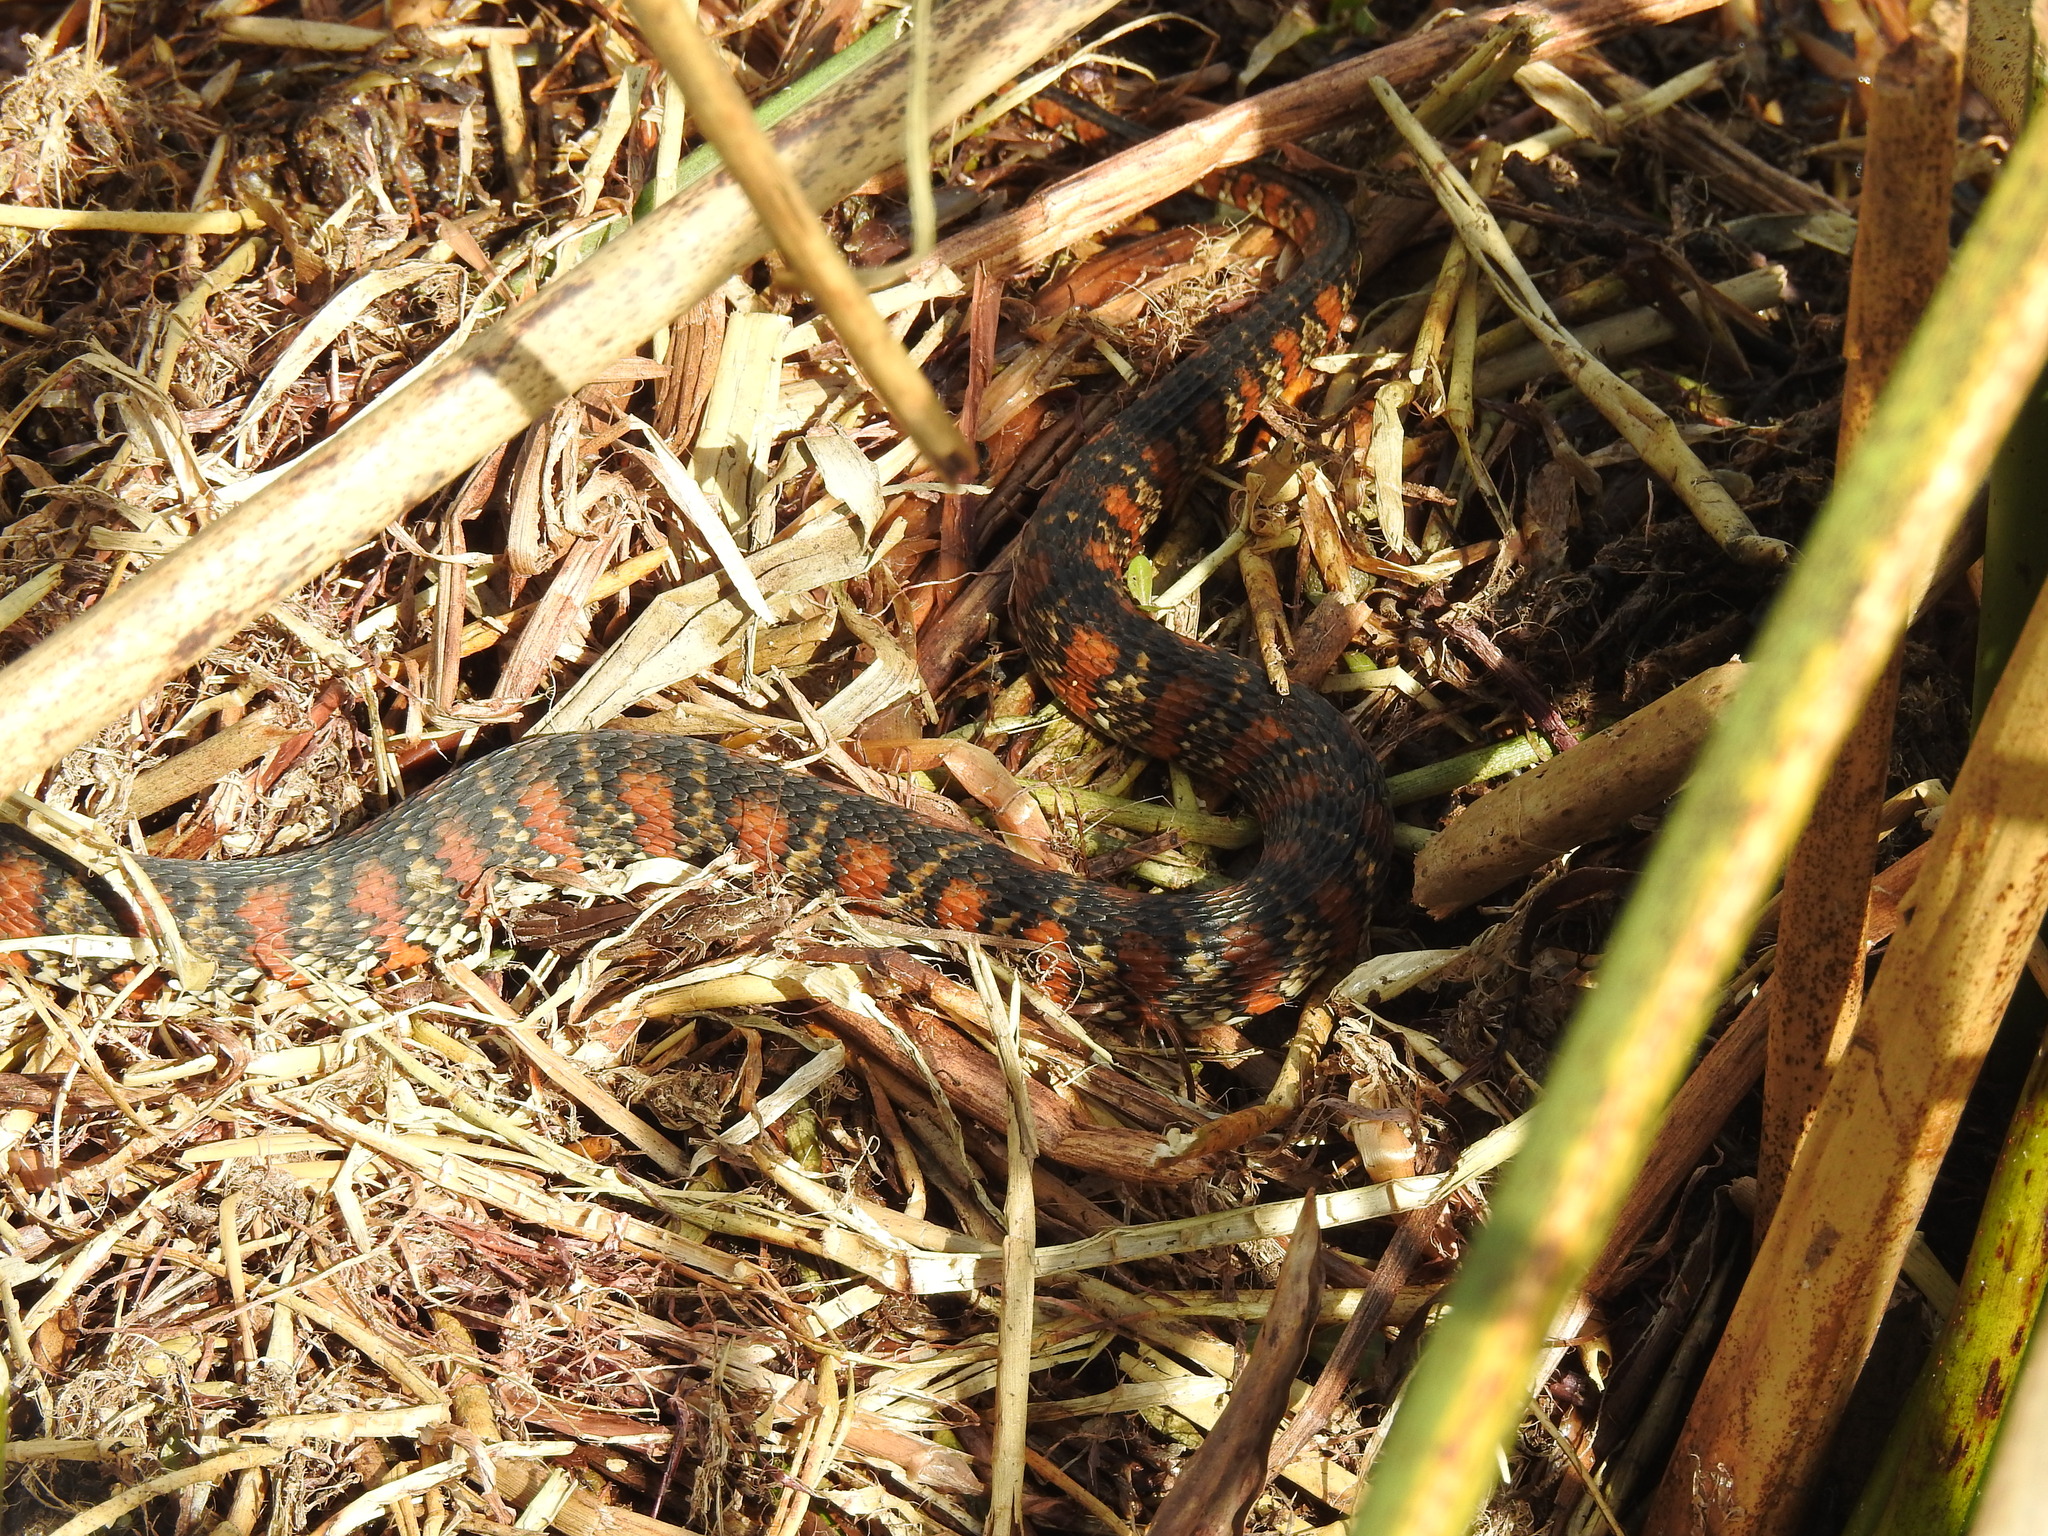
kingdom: Animalia
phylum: Chordata
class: Squamata
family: Colubridae
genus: Nerodia
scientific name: Nerodia fasciata
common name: Southern water snake
